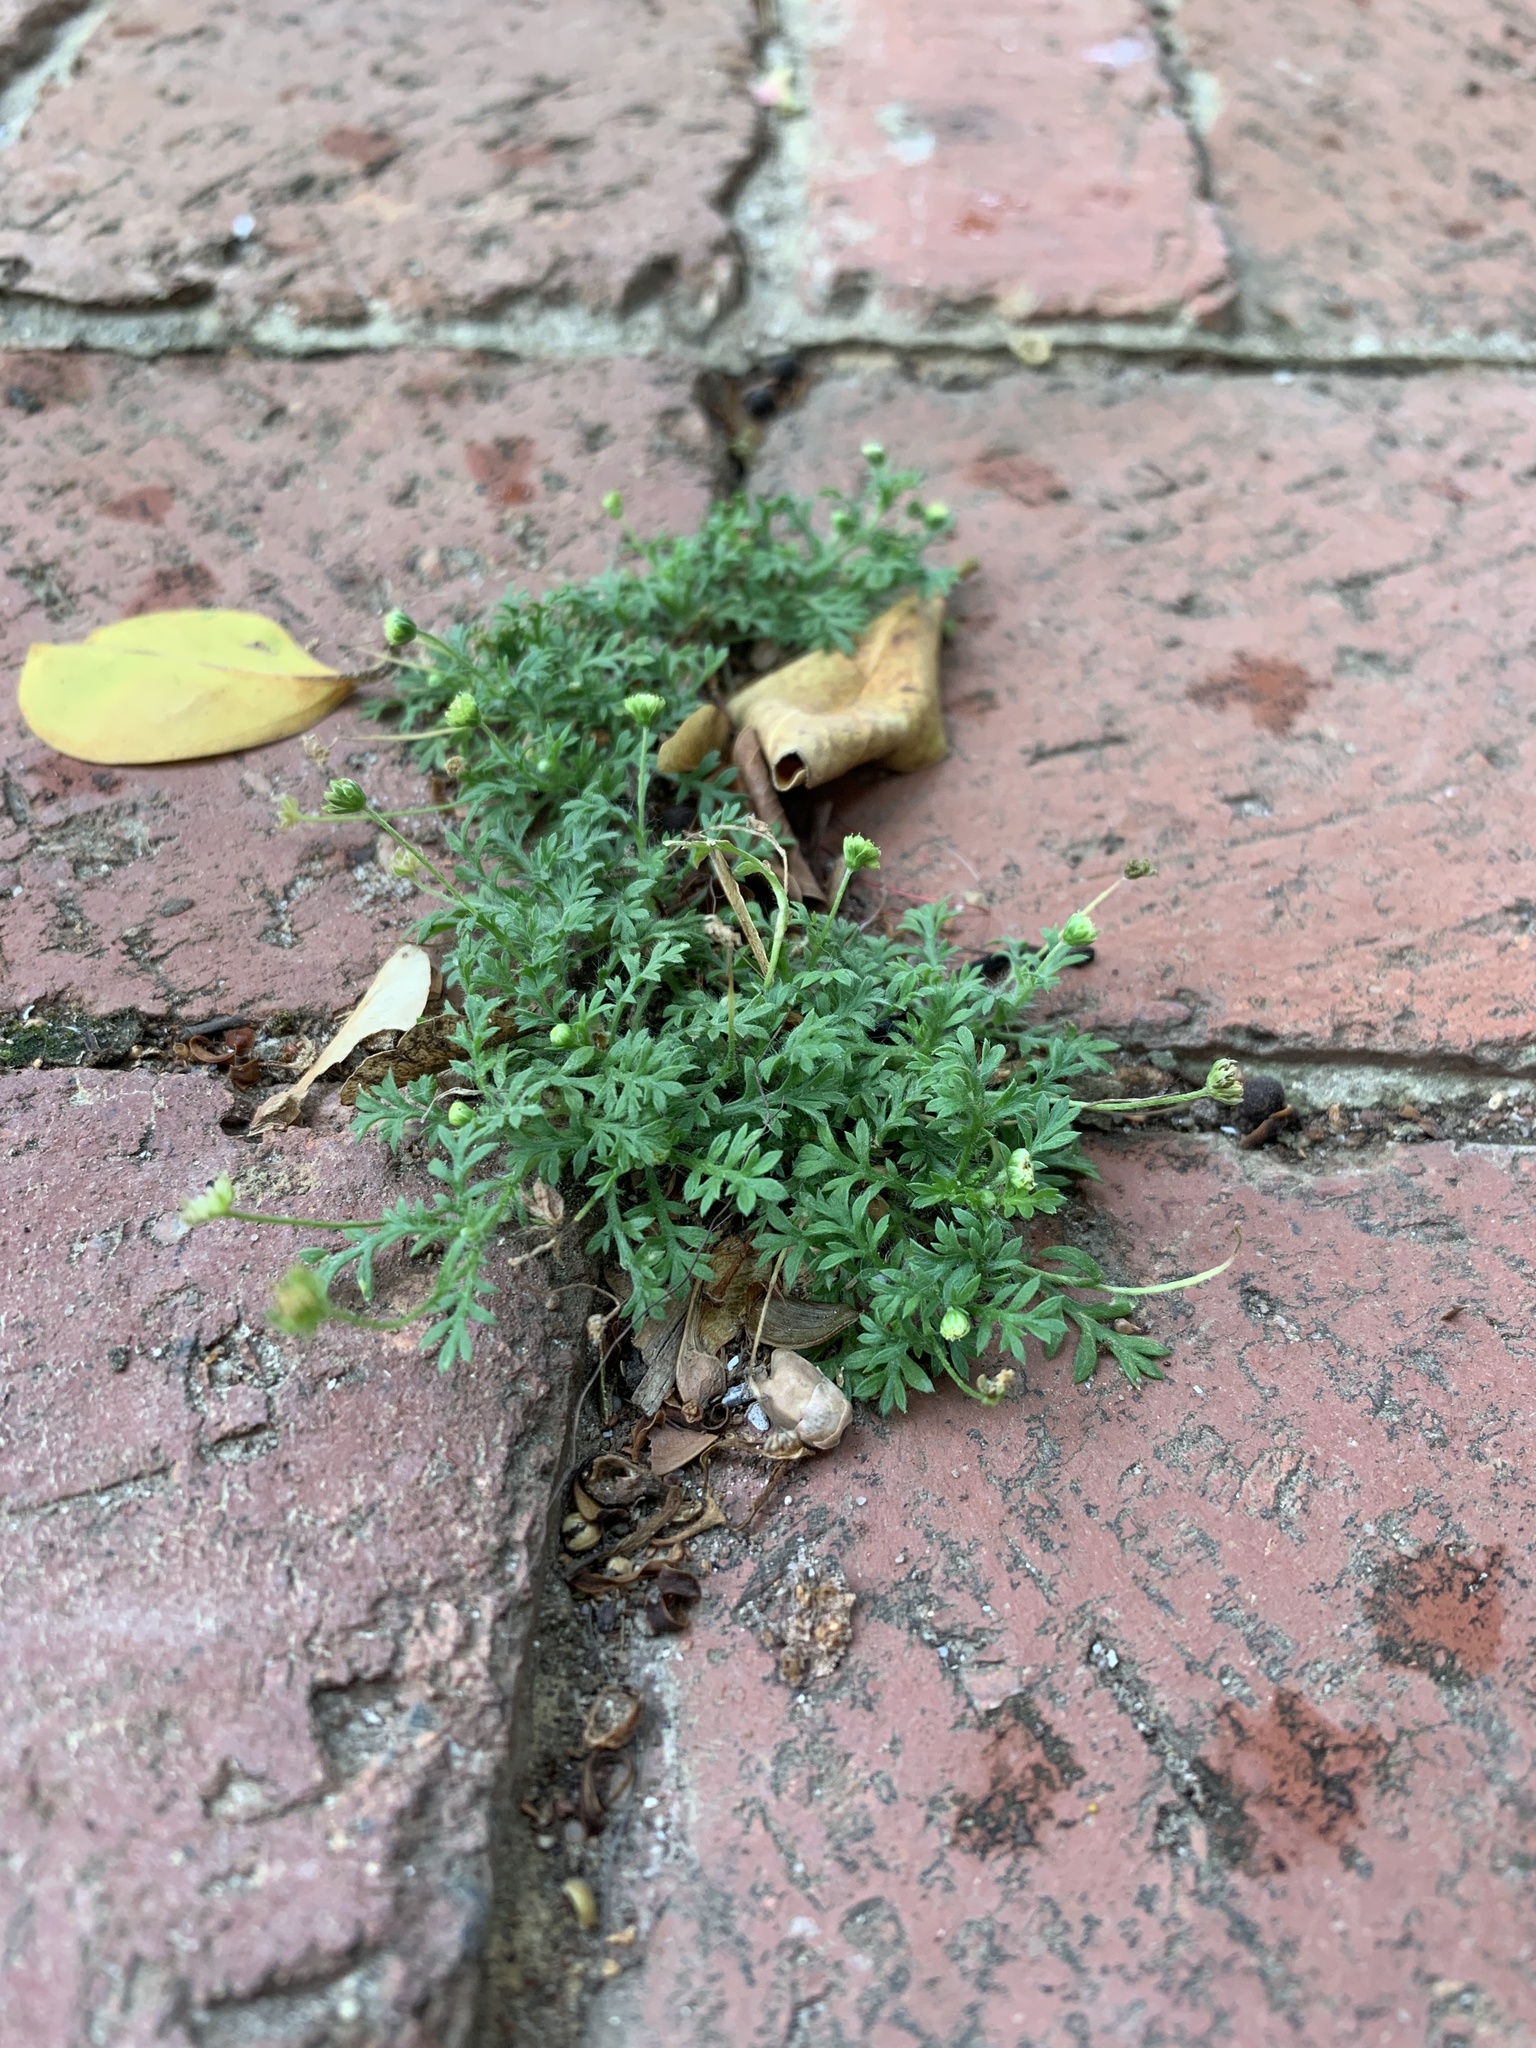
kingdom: Plantae
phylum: Tracheophyta
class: Magnoliopsida
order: Asterales
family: Asteraceae
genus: Cotula
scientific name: Cotula australis
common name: Australian waterbuttons
